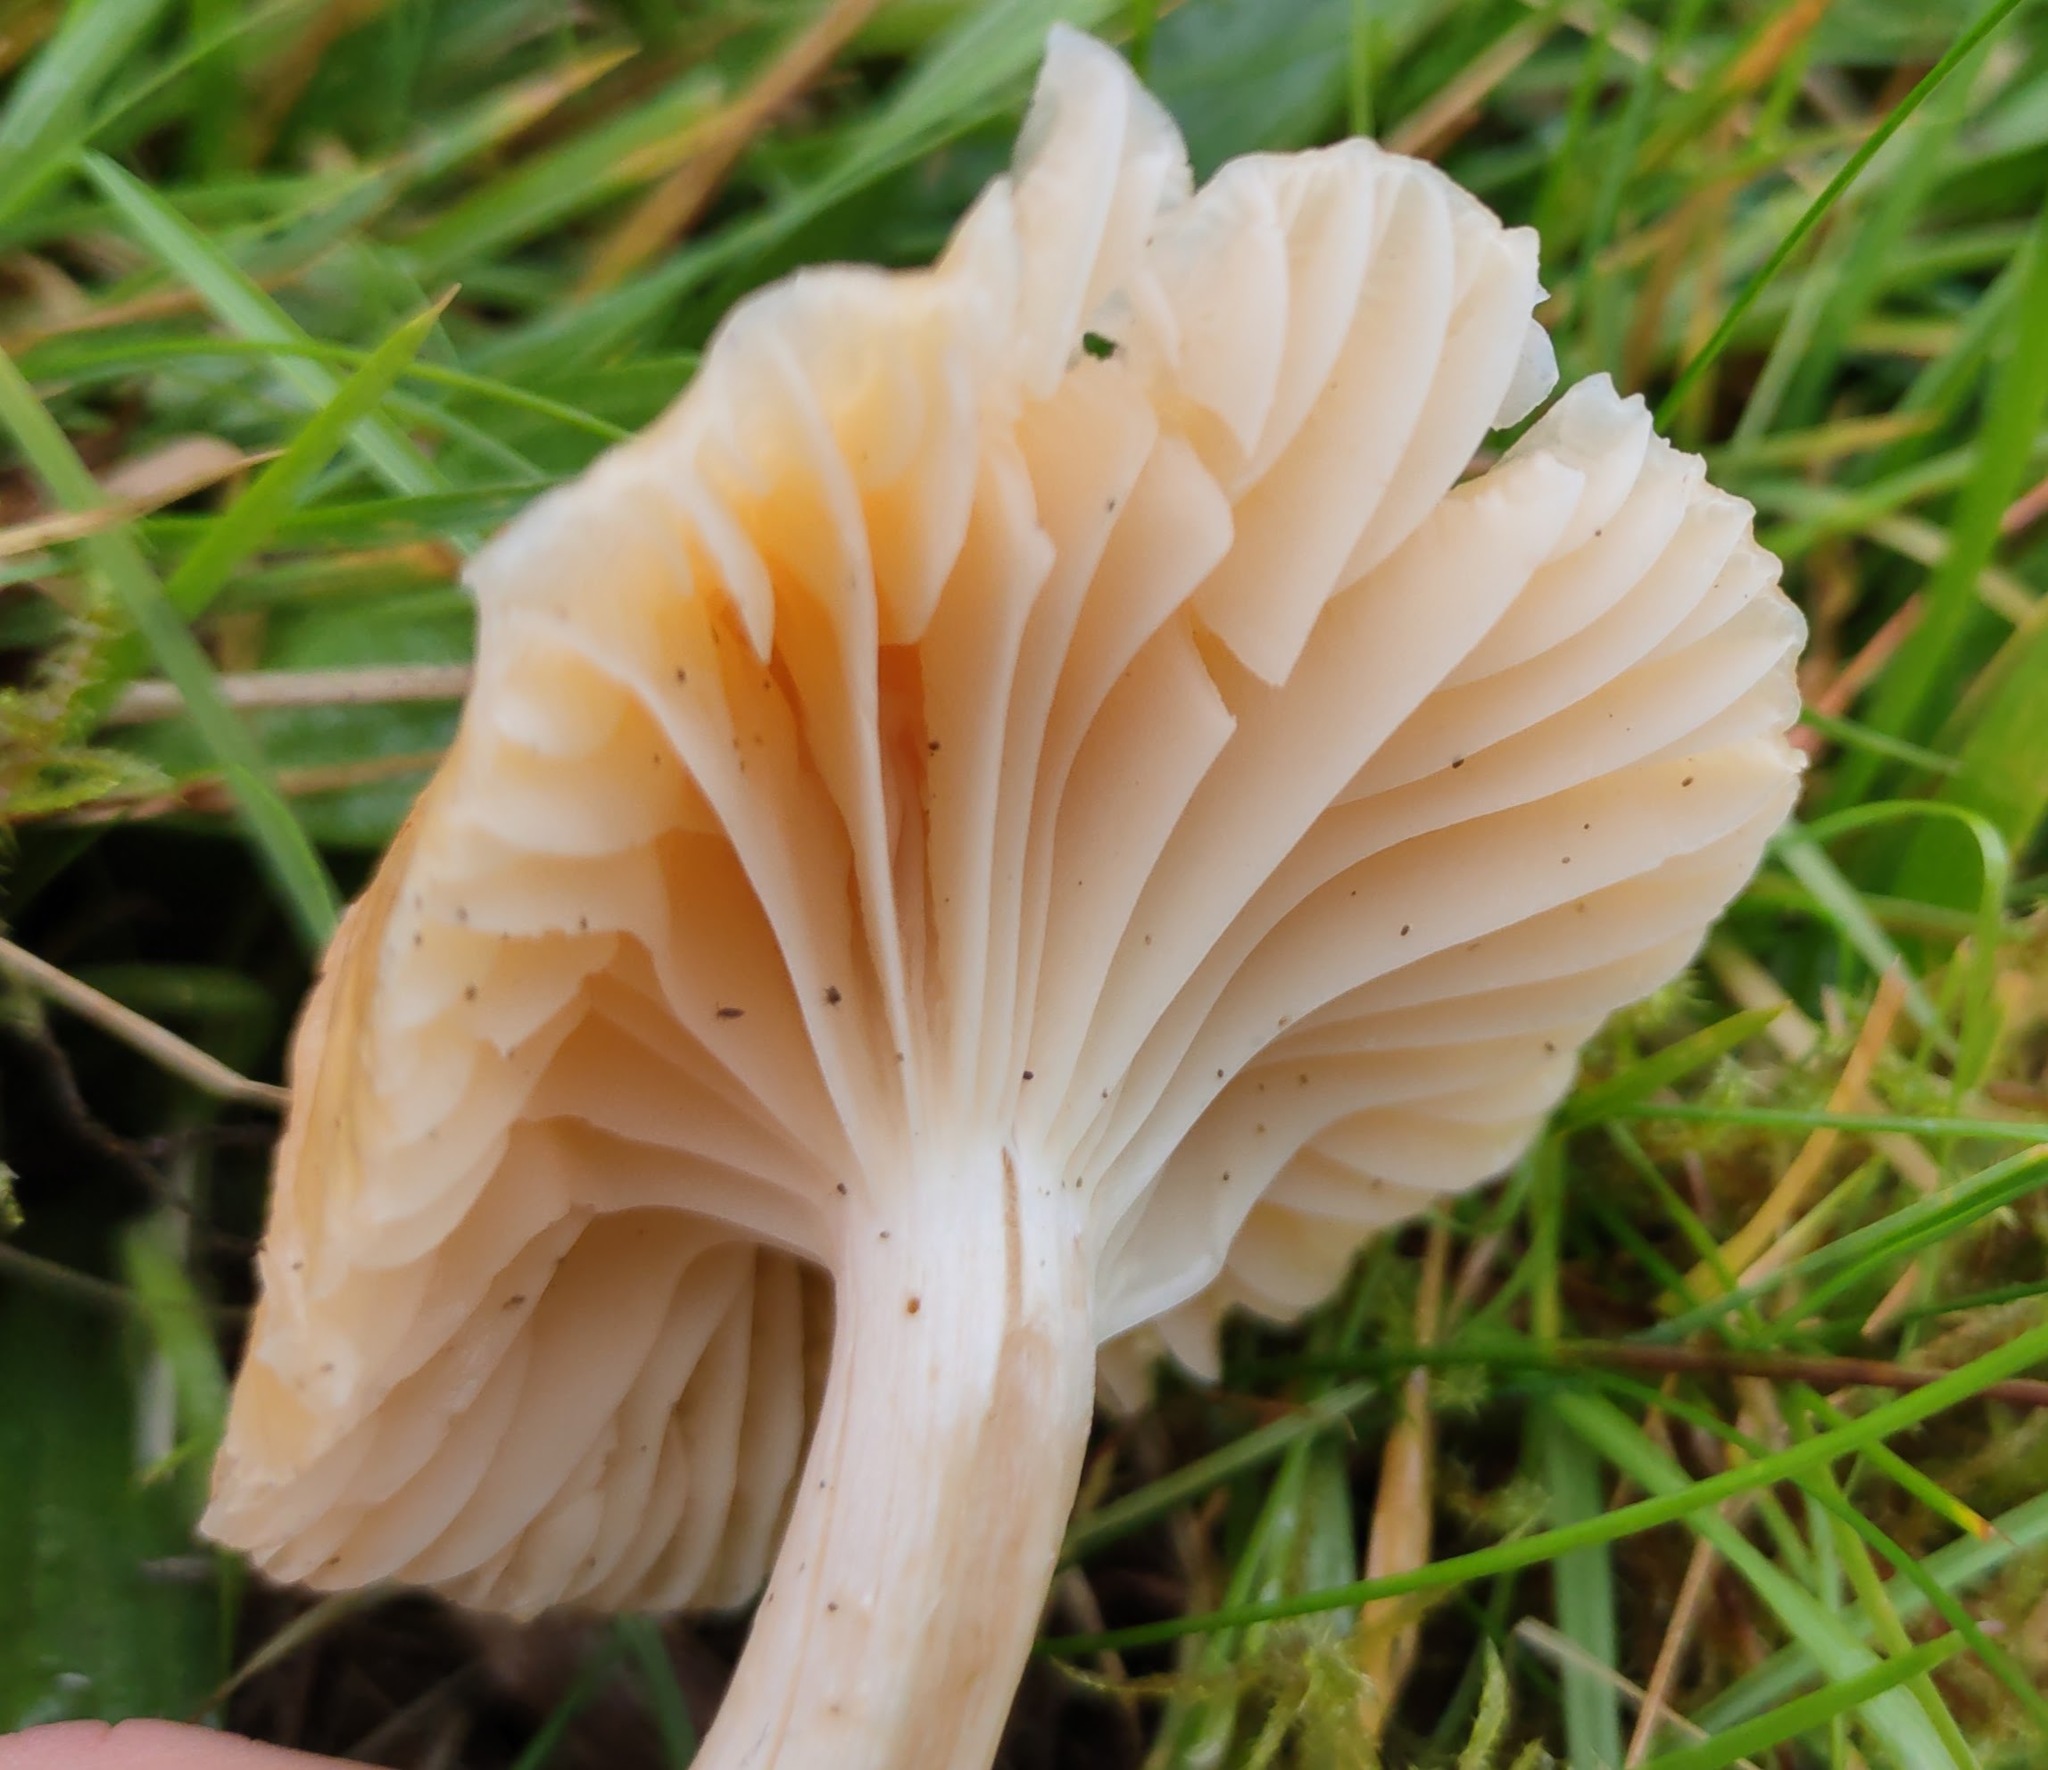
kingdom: Fungi
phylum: Basidiomycota
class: Agaricomycetes
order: Agaricales
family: Hygrophoraceae
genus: Cuphophyllus
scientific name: Cuphophyllus pratensis
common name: Meadow waxcap
